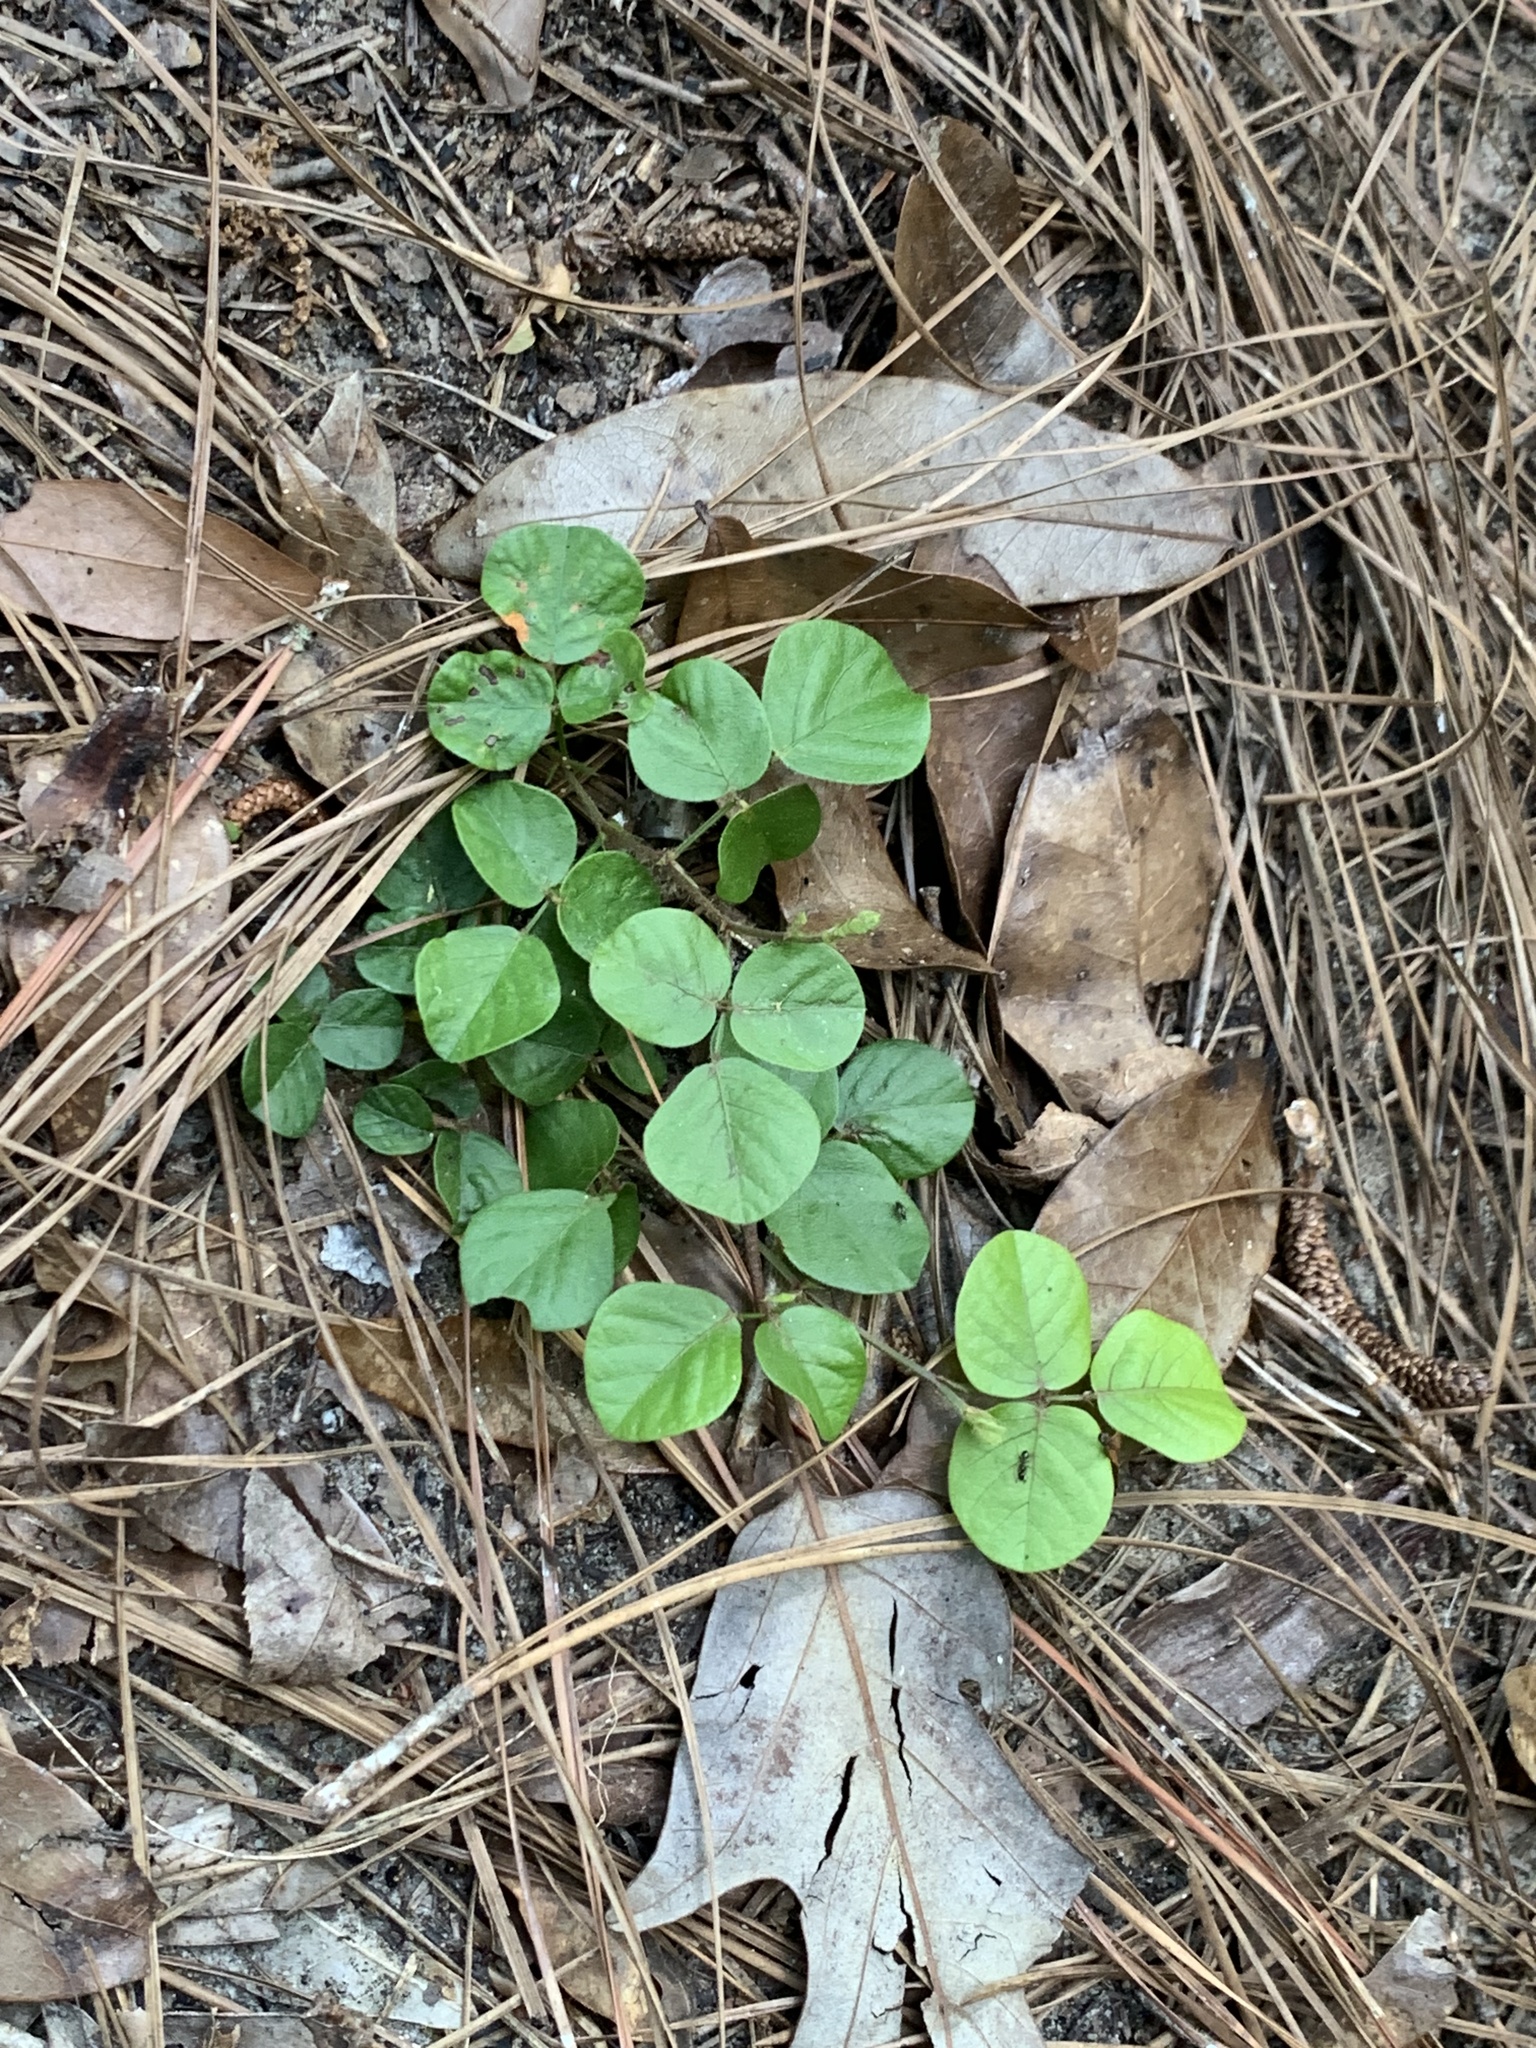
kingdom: Plantae
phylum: Tracheophyta
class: Magnoliopsida
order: Fabales
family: Fabaceae
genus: Desmodium
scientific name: Desmodium lineatum
